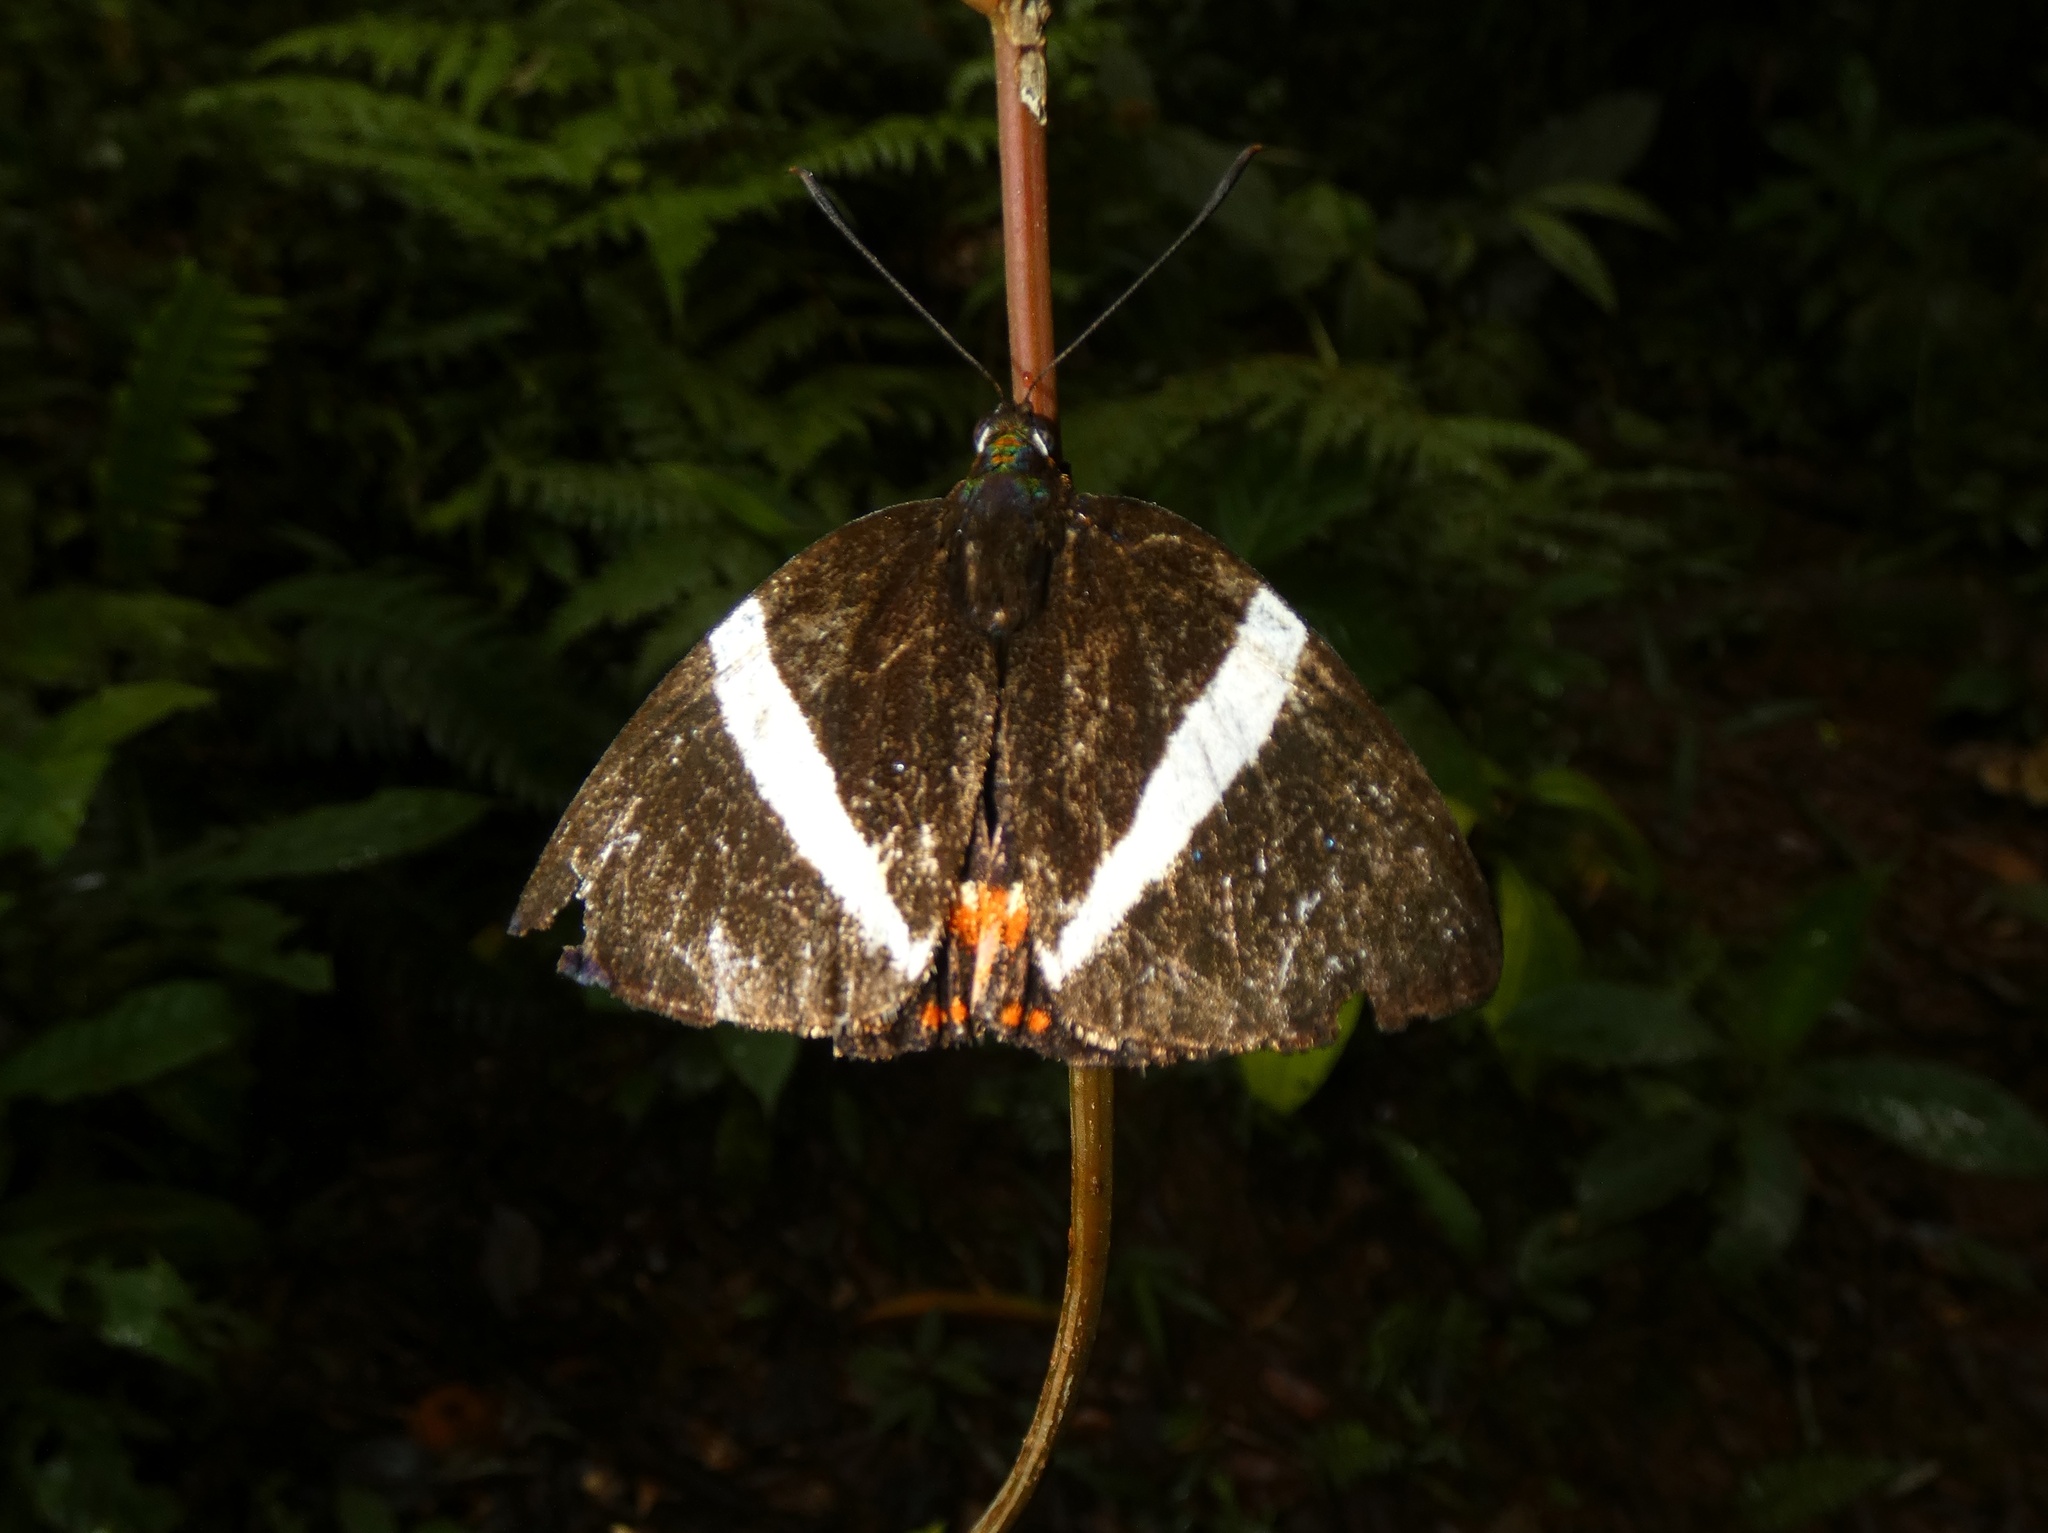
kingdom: Animalia
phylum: Arthropoda
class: Insecta
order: Lepidoptera
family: Castniidae
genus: Telchin
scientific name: Telchin
